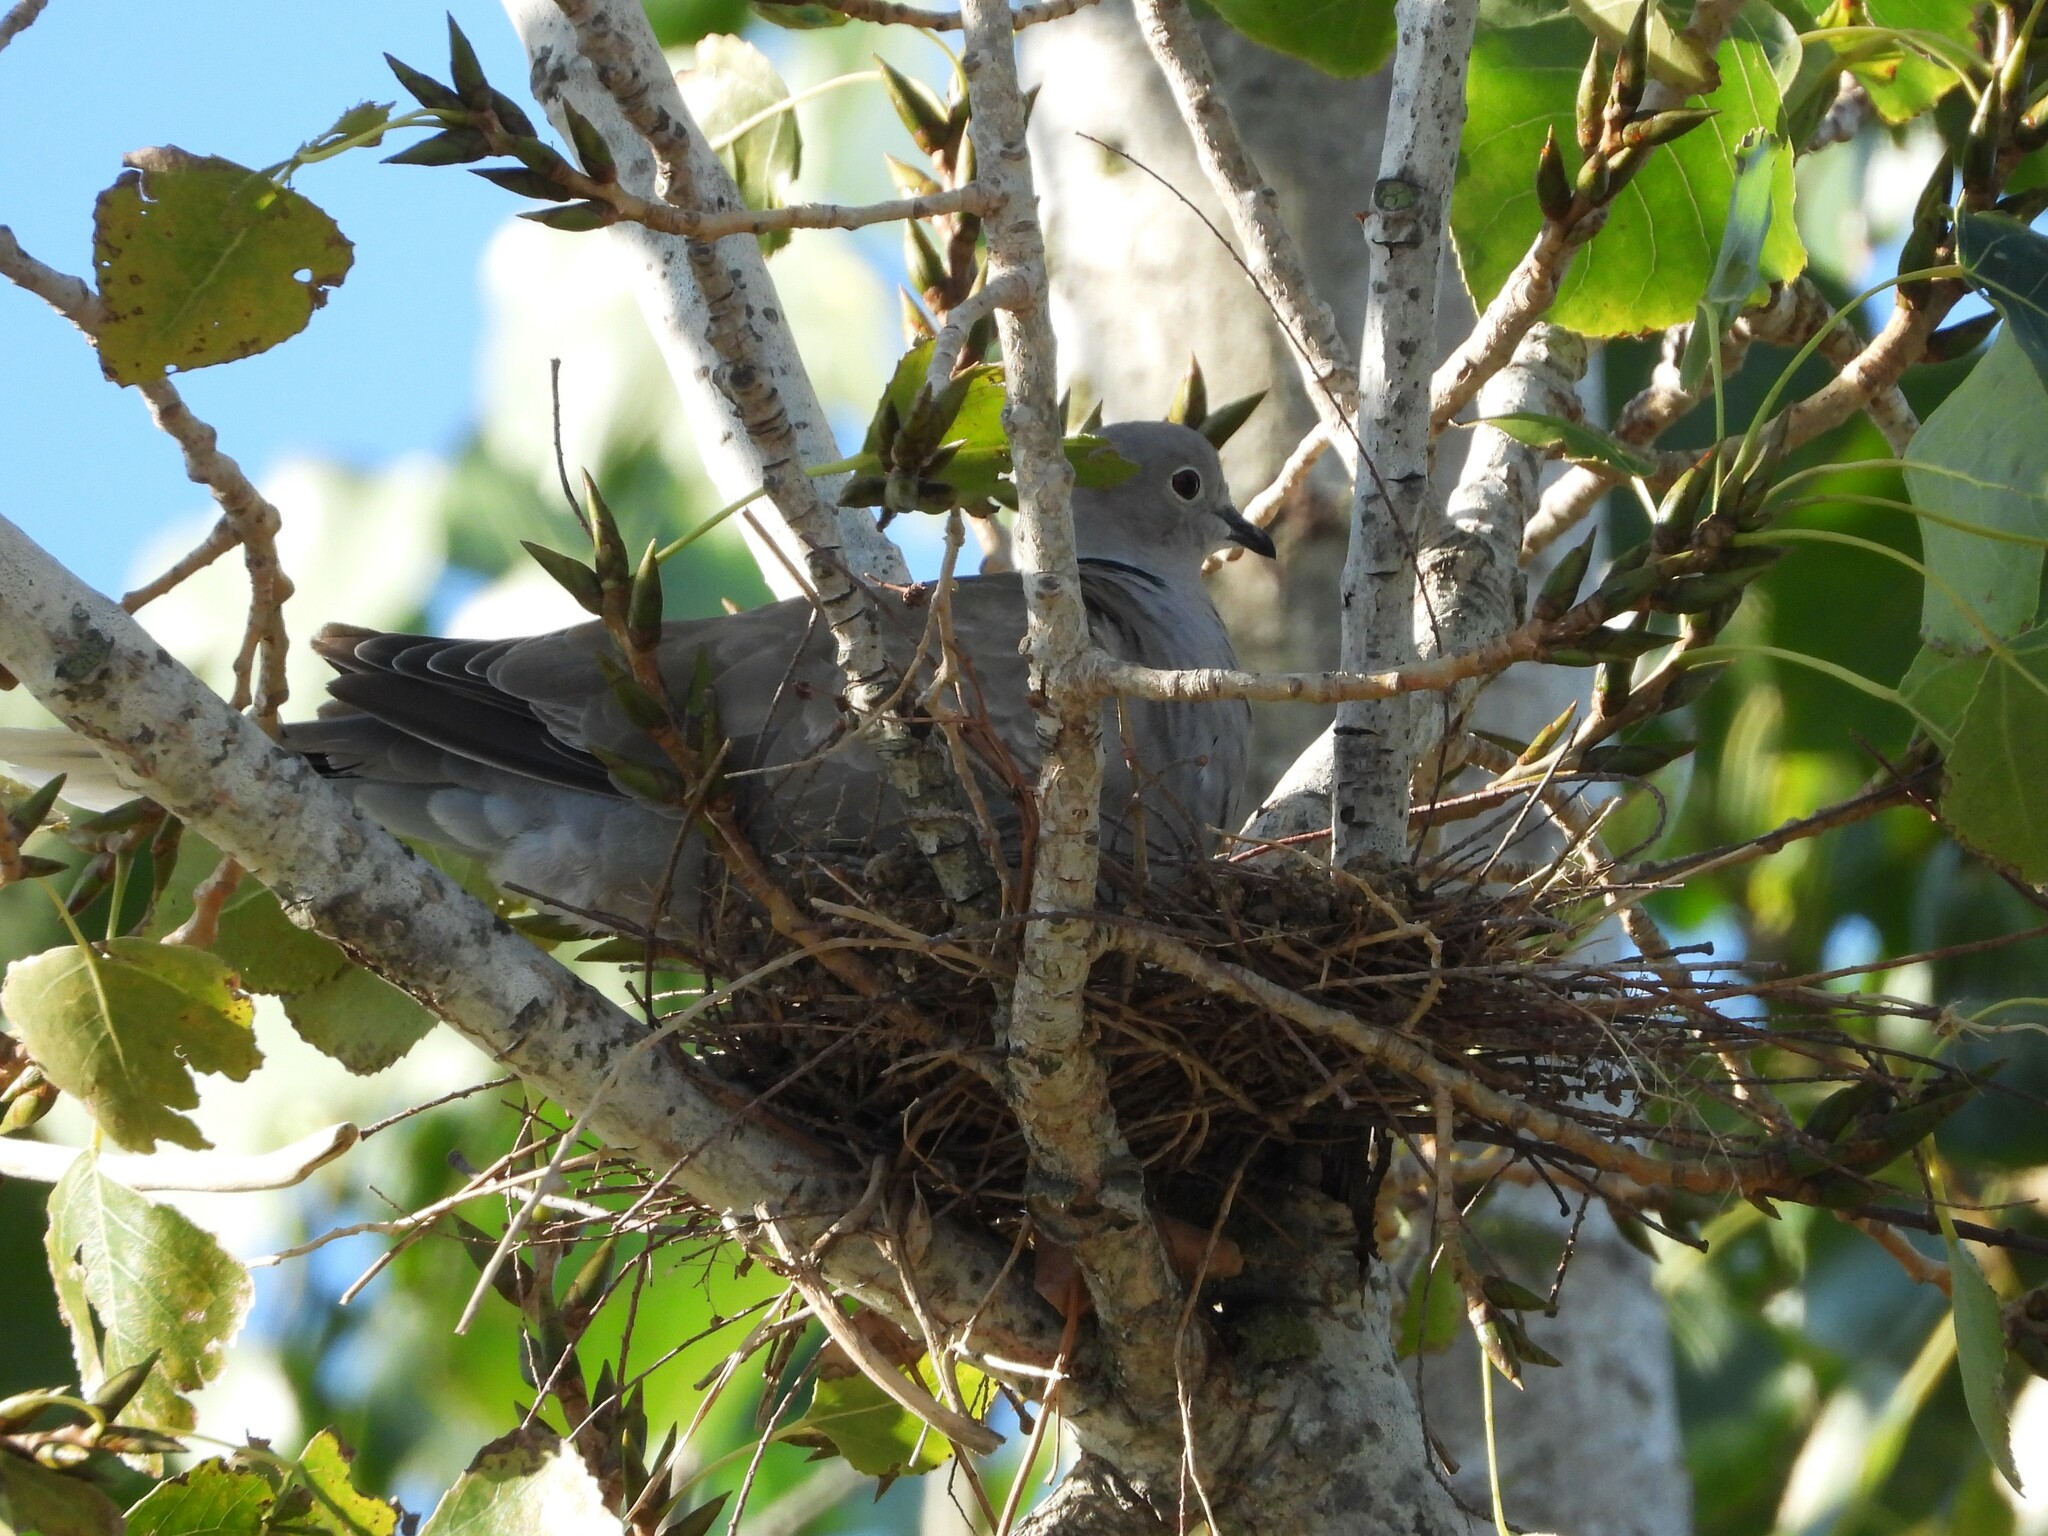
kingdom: Animalia
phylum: Chordata
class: Aves
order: Columbiformes
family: Columbidae
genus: Streptopelia
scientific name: Streptopelia decaocto
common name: Eurasian collared dove
